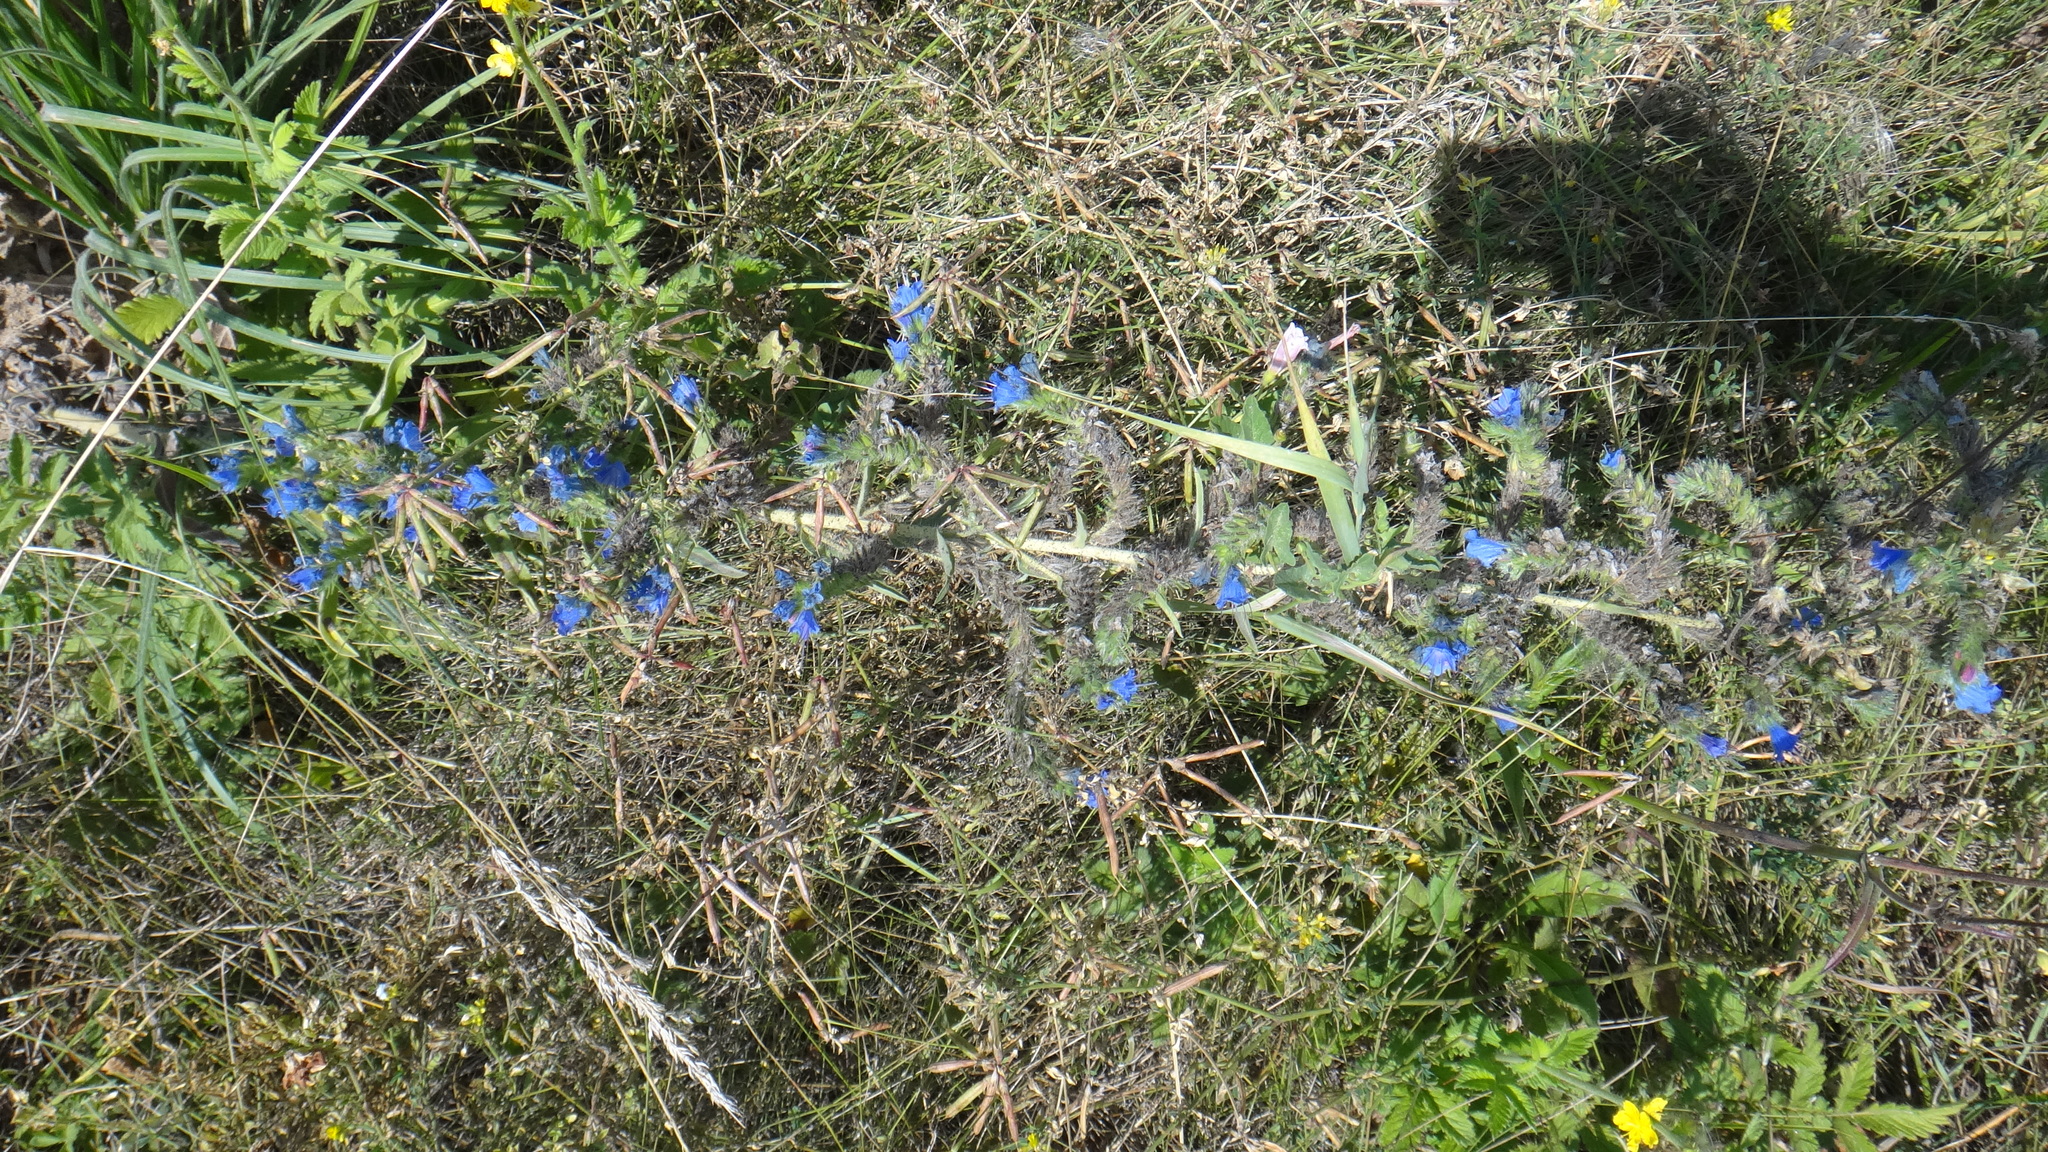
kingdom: Plantae
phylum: Tracheophyta
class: Magnoliopsida
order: Boraginales
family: Boraginaceae
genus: Echium
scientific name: Echium vulgare
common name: Common viper's bugloss
